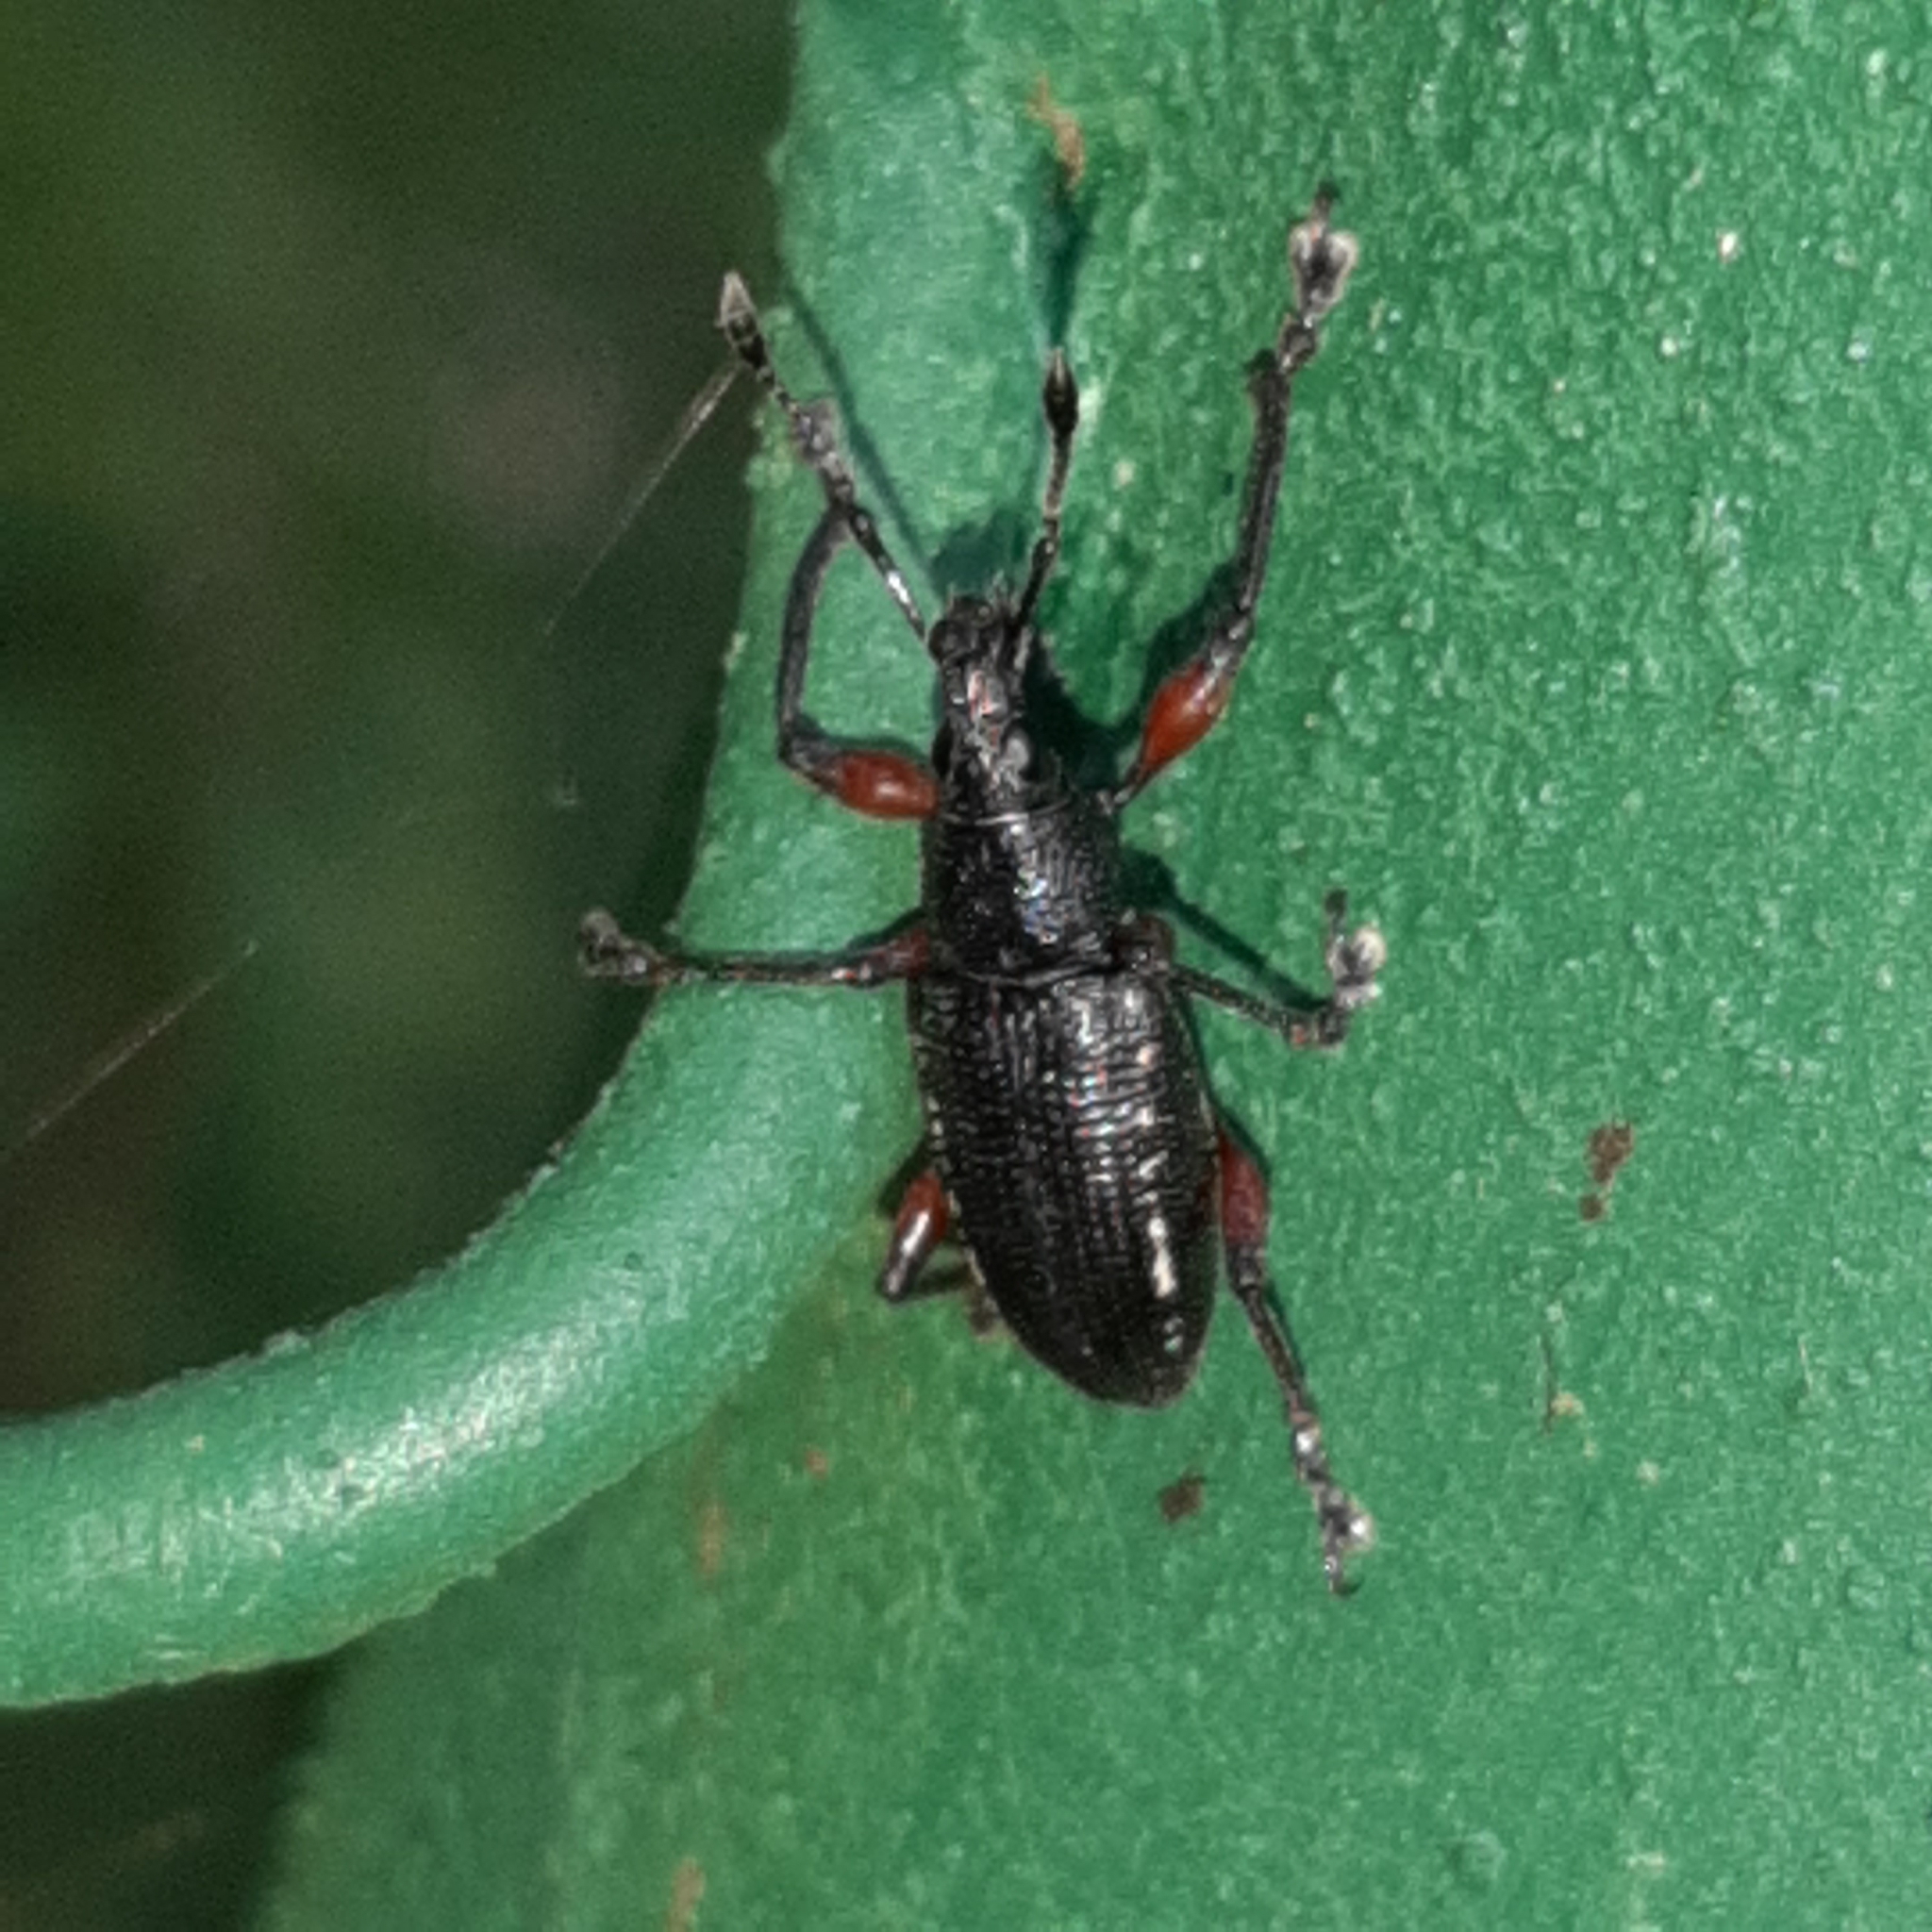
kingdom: Animalia
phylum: Arthropoda
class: Insecta
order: Coleoptera
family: Curculionidae
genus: Exophthalmus
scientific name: Exophthalmus sulcicrus
